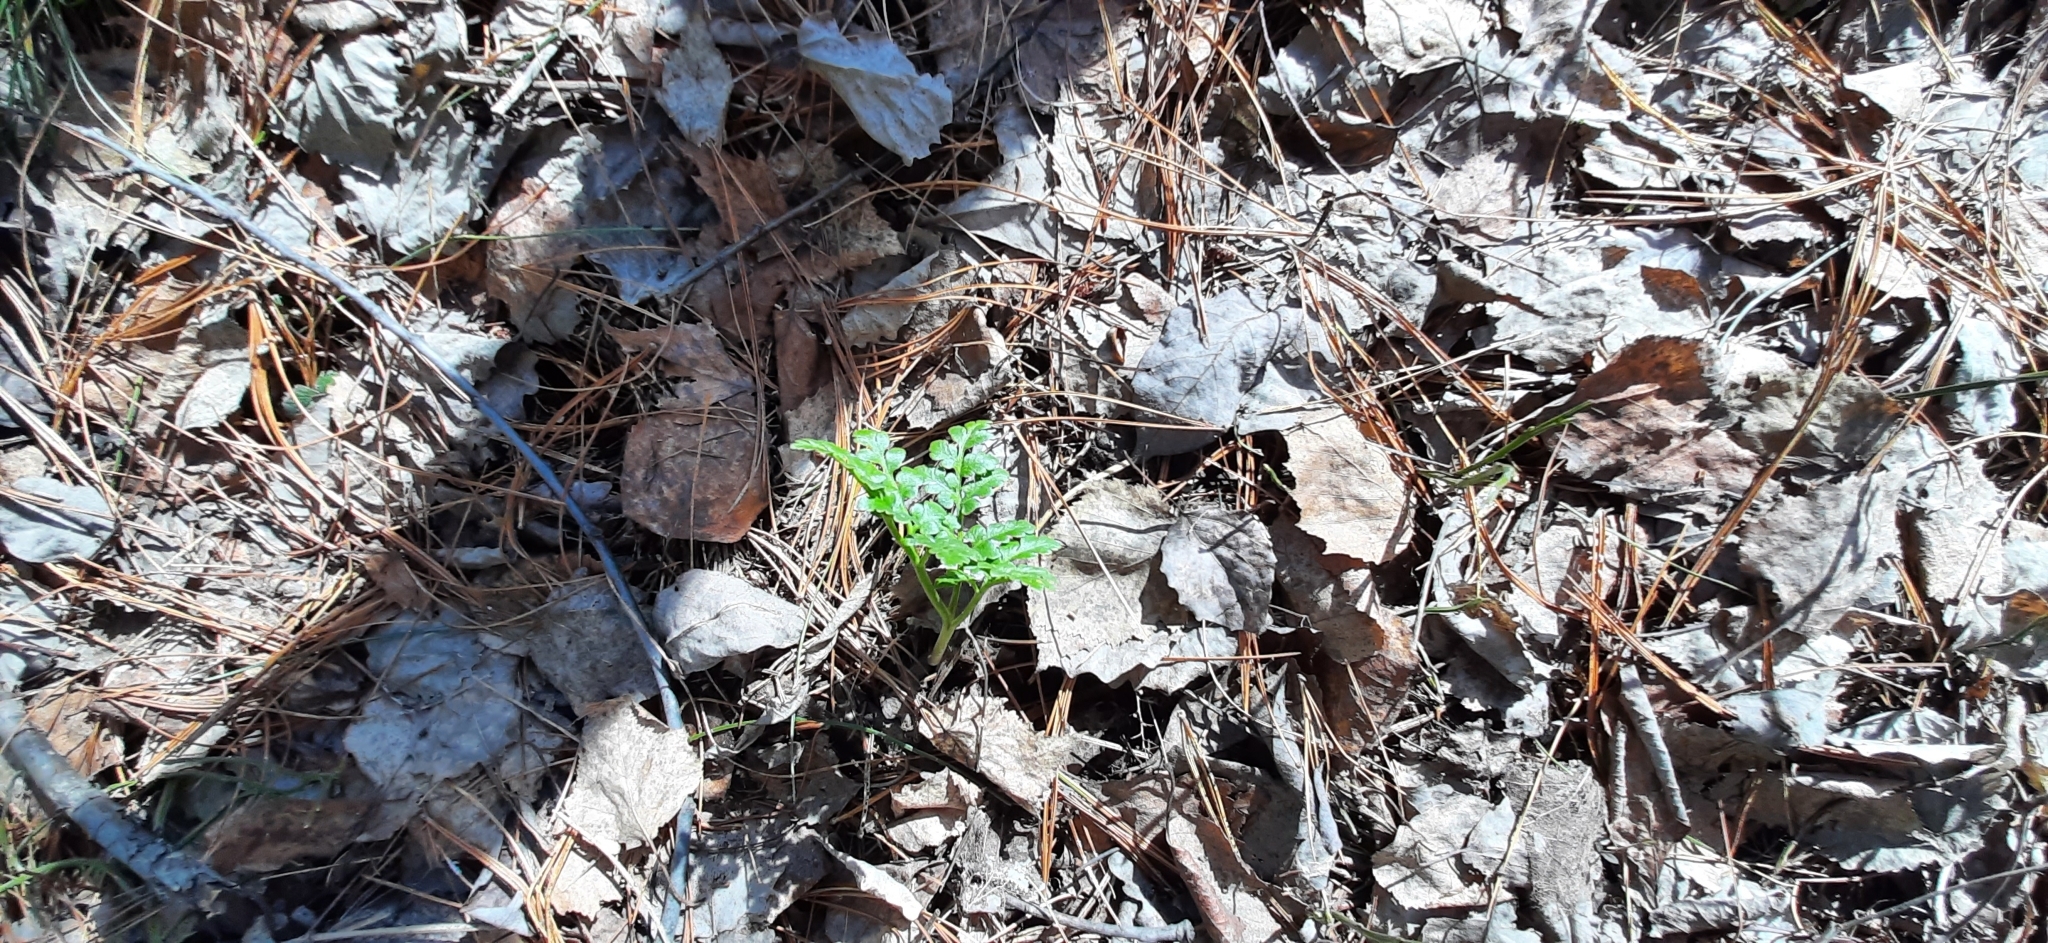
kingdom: Plantae
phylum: Tracheophyta
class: Polypodiopsida
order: Ophioglossales
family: Ophioglossaceae
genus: Sceptridium
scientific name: Sceptridium multifidum
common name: Leathery grape fern
